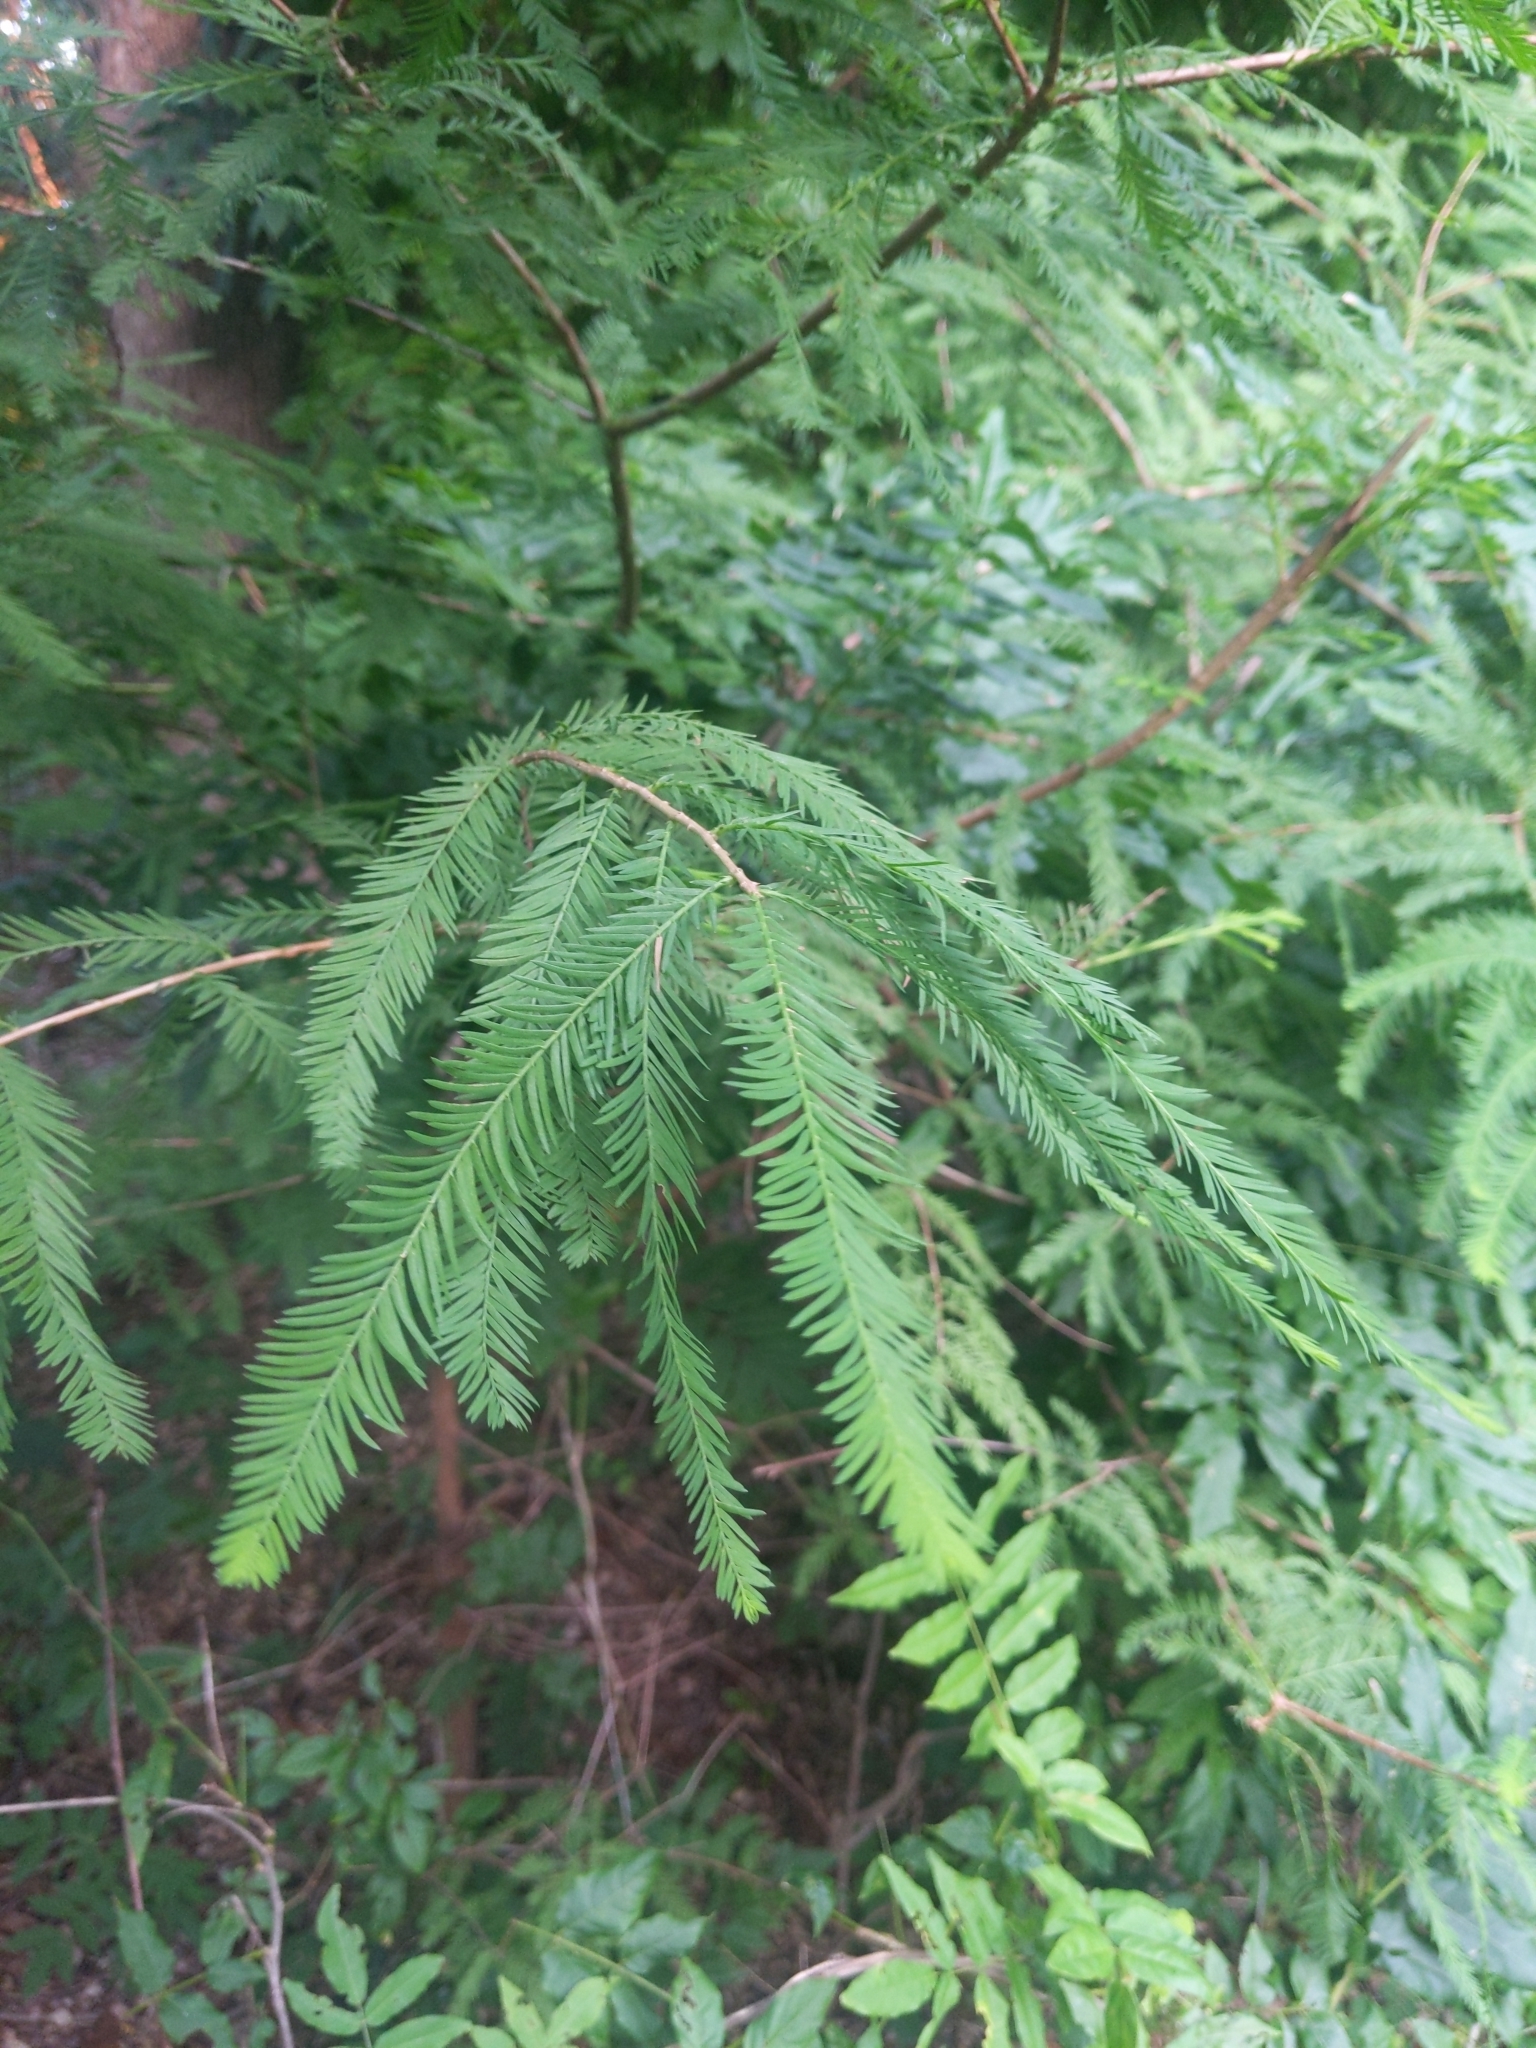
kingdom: Plantae
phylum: Tracheophyta
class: Pinopsida
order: Pinales
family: Cupressaceae
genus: Taxodium
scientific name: Taxodium distichum
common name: Bald cypress
